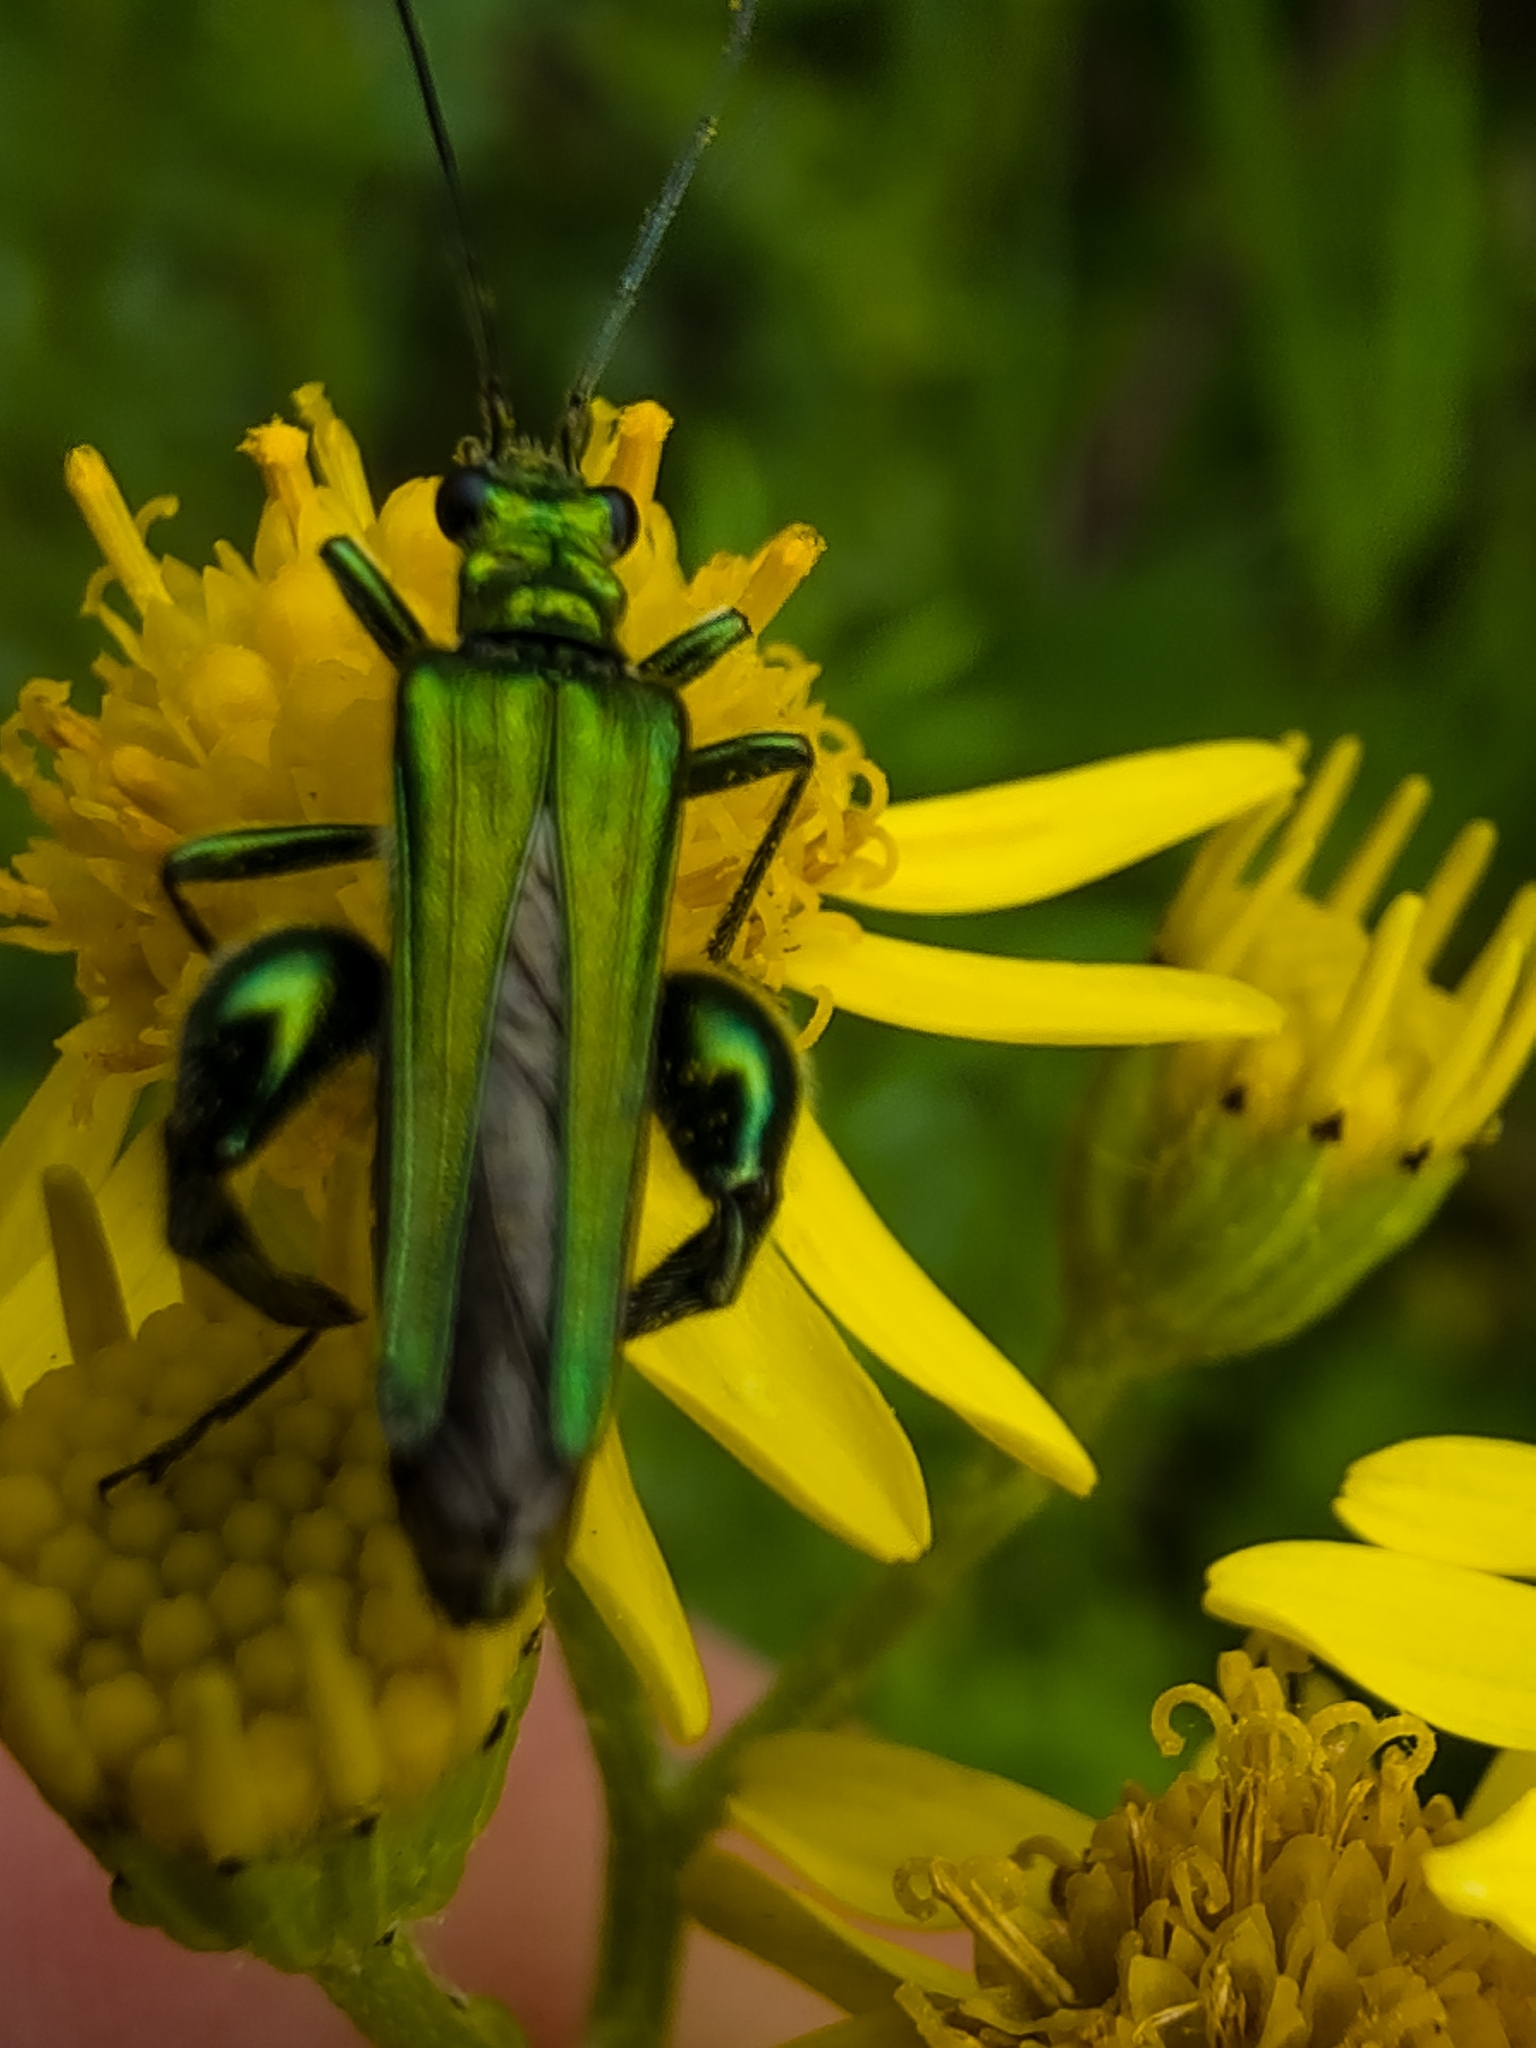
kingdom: Animalia
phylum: Arthropoda
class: Insecta
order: Coleoptera
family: Oedemeridae
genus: Oedemera
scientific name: Oedemera nobilis
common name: Swollen-thighed beetle
